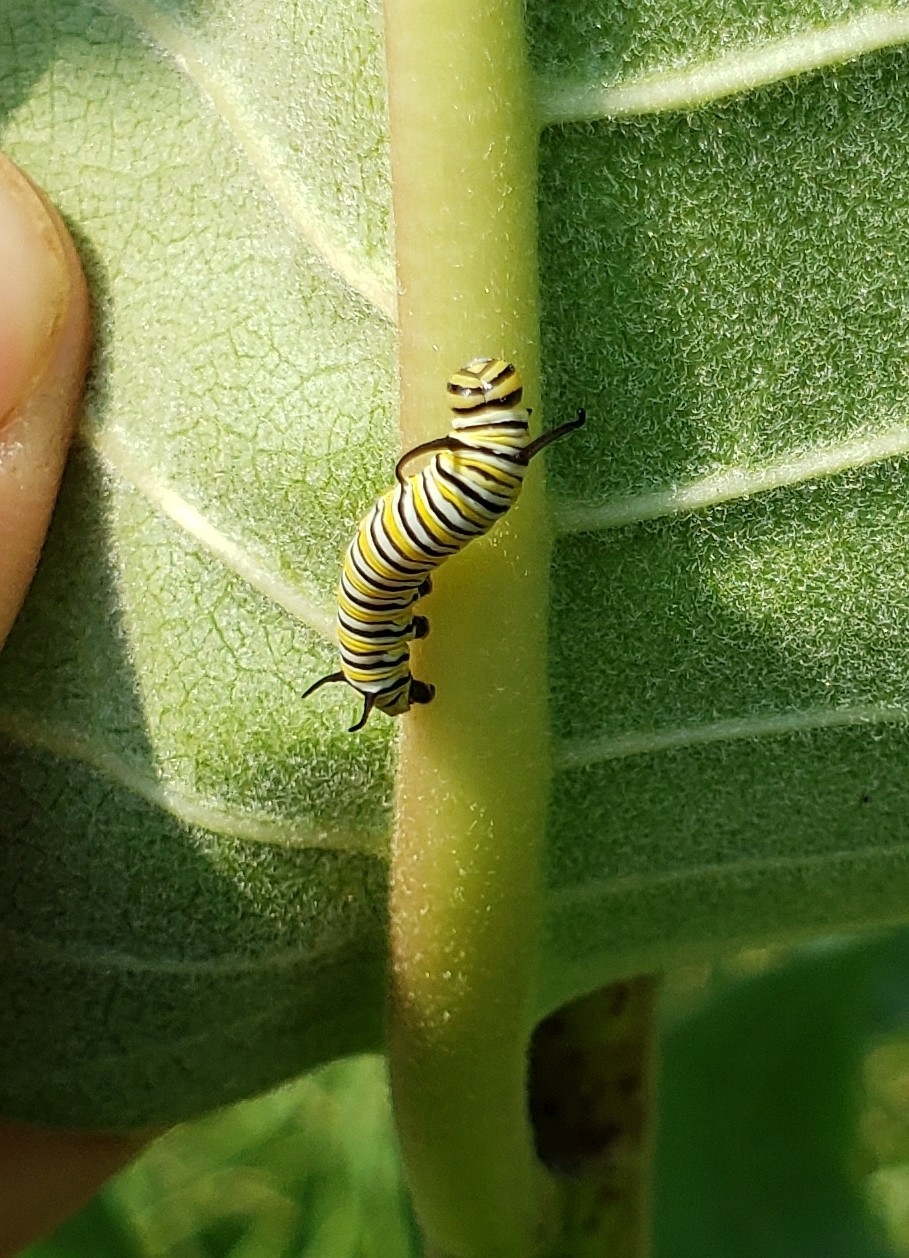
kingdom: Animalia
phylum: Arthropoda
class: Insecta
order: Lepidoptera
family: Nymphalidae
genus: Danaus
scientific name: Danaus plexippus
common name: Monarch
